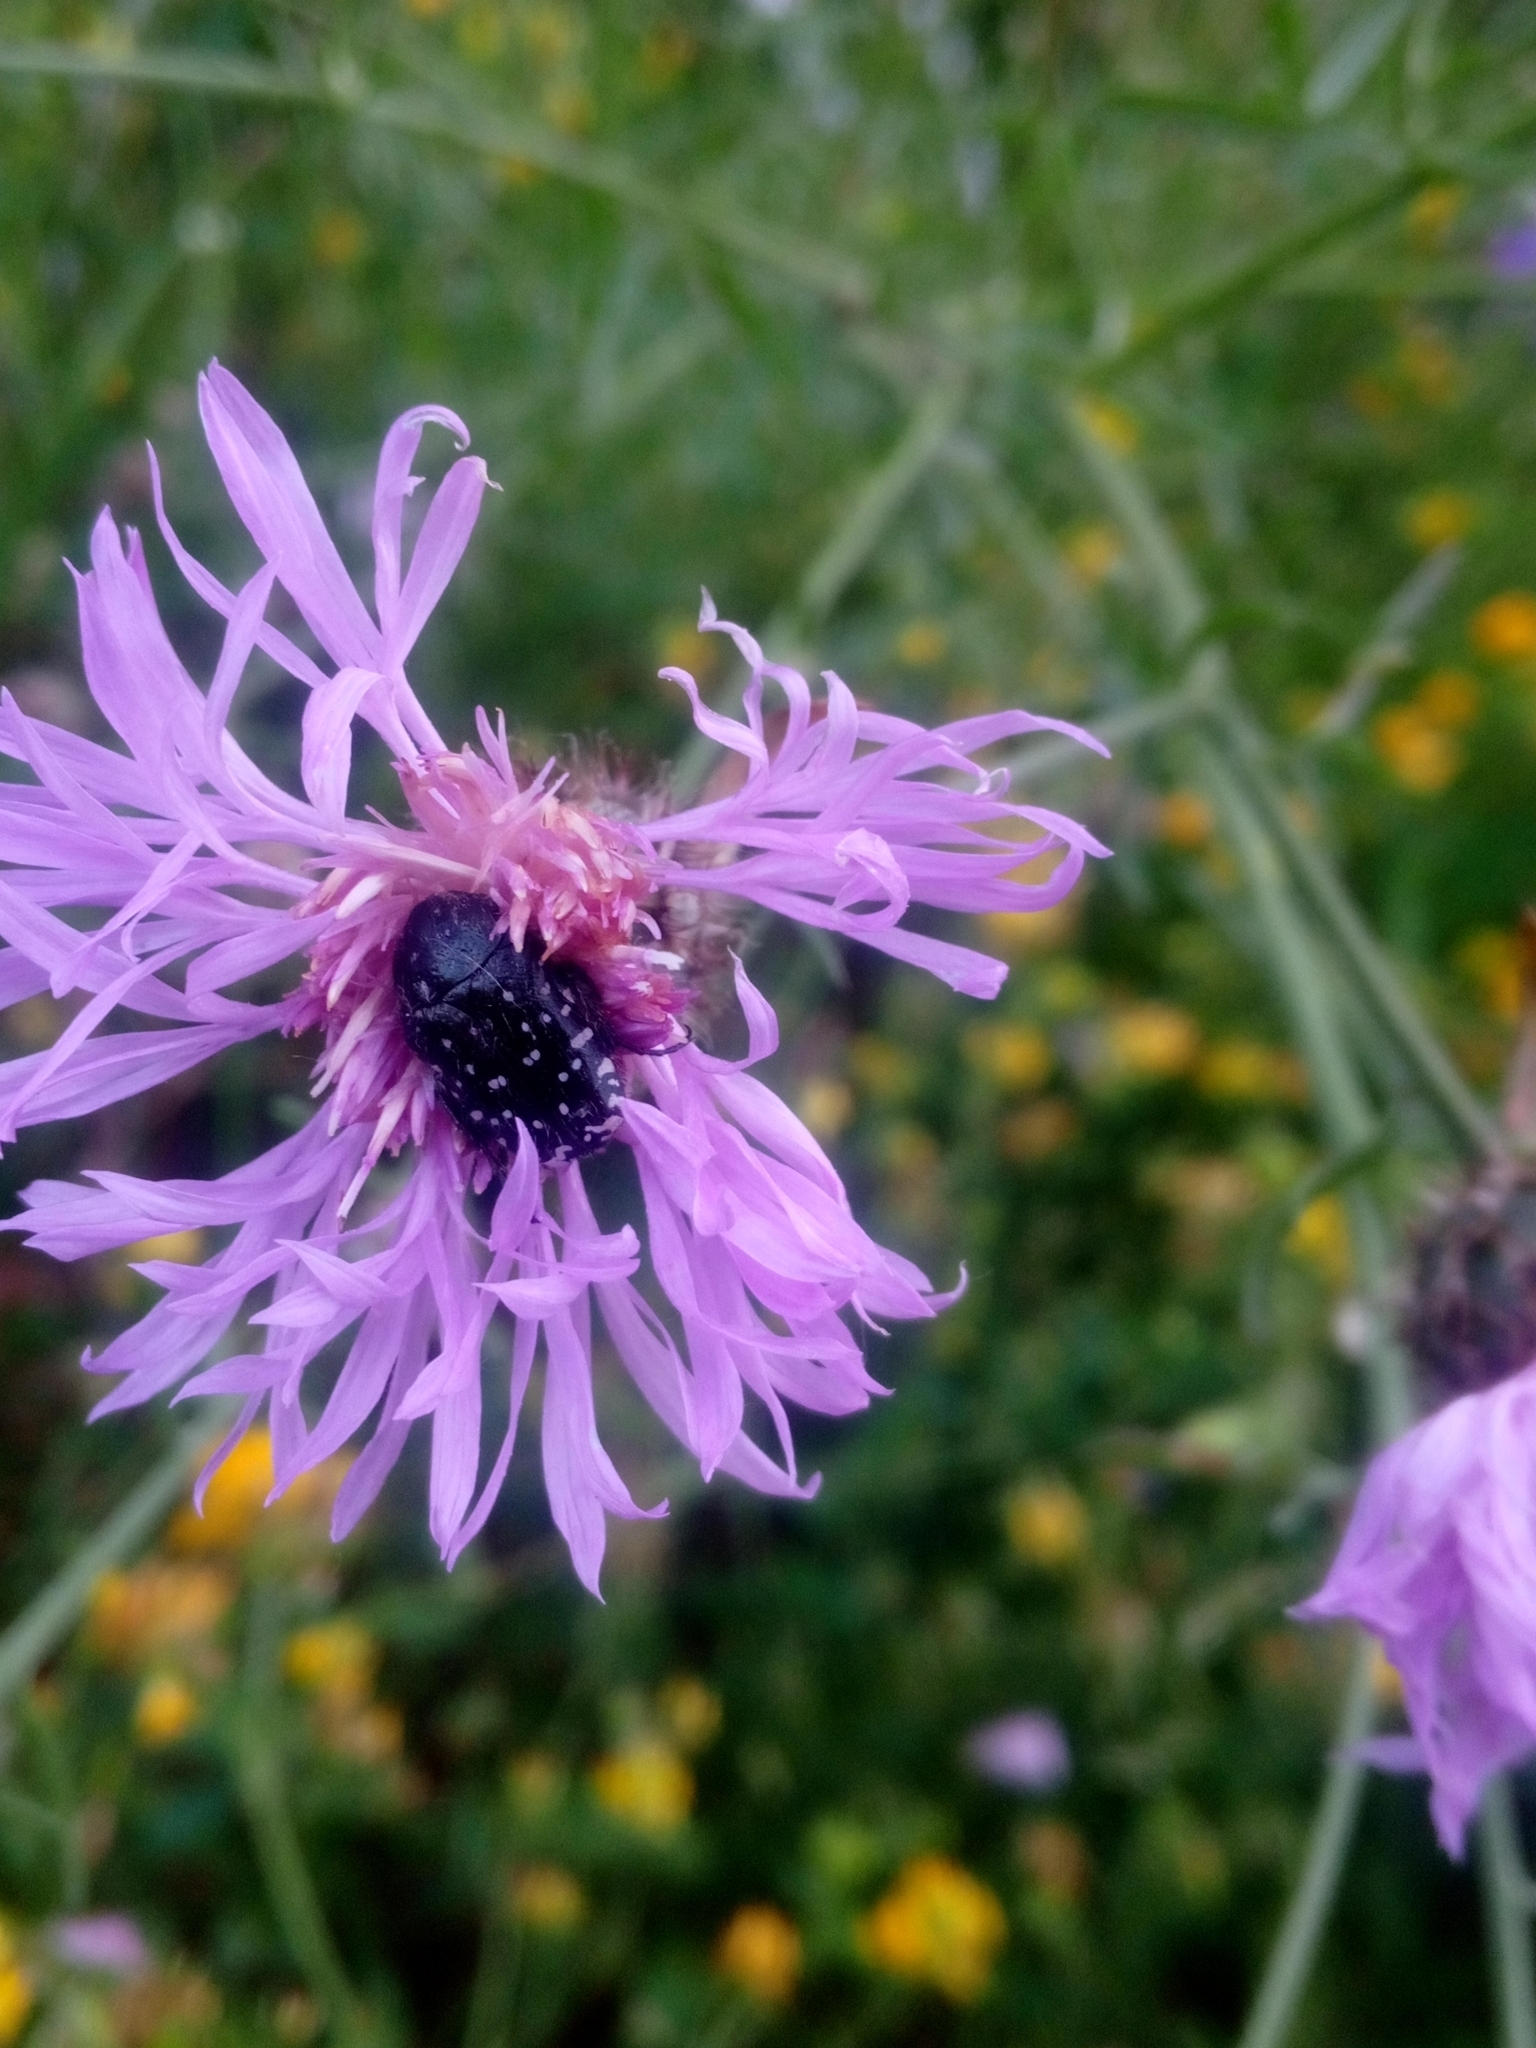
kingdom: Animalia
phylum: Arthropoda
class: Insecta
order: Coleoptera
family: Scarabaeidae
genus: Oxythyrea
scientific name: Oxythyrea funesta
